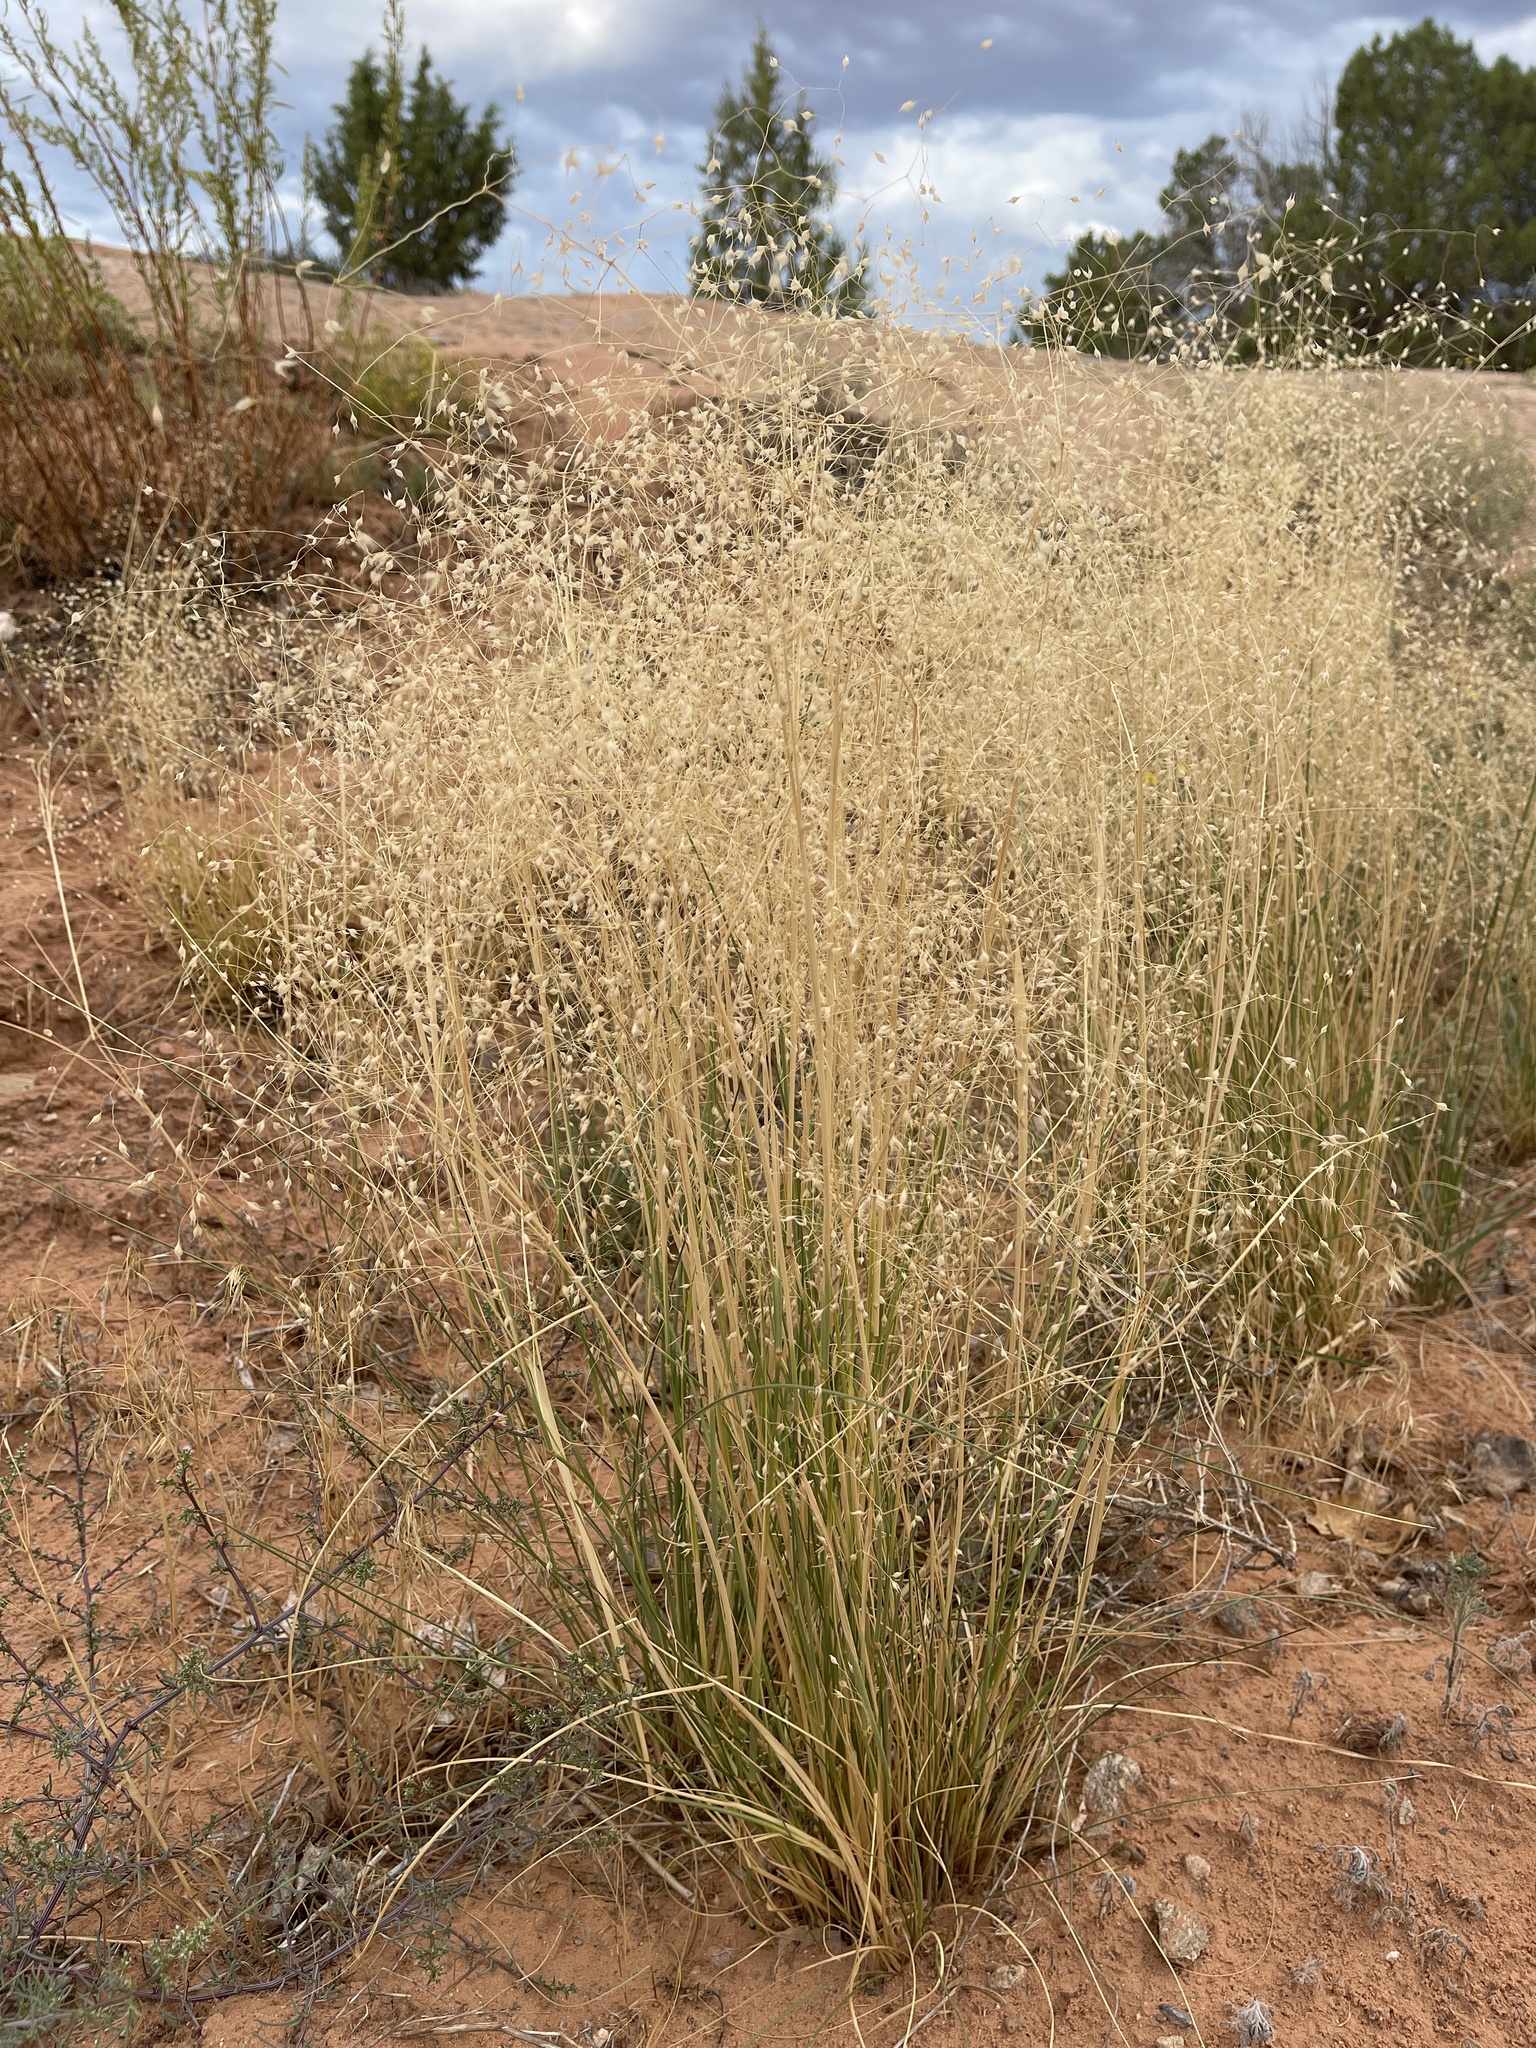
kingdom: Plantae
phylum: Tracheophyta
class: Liliopsida
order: Poales
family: Poaceae
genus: Eriocoma
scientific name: Eriocoma hymenoides
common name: Indian mountain ricegrass
